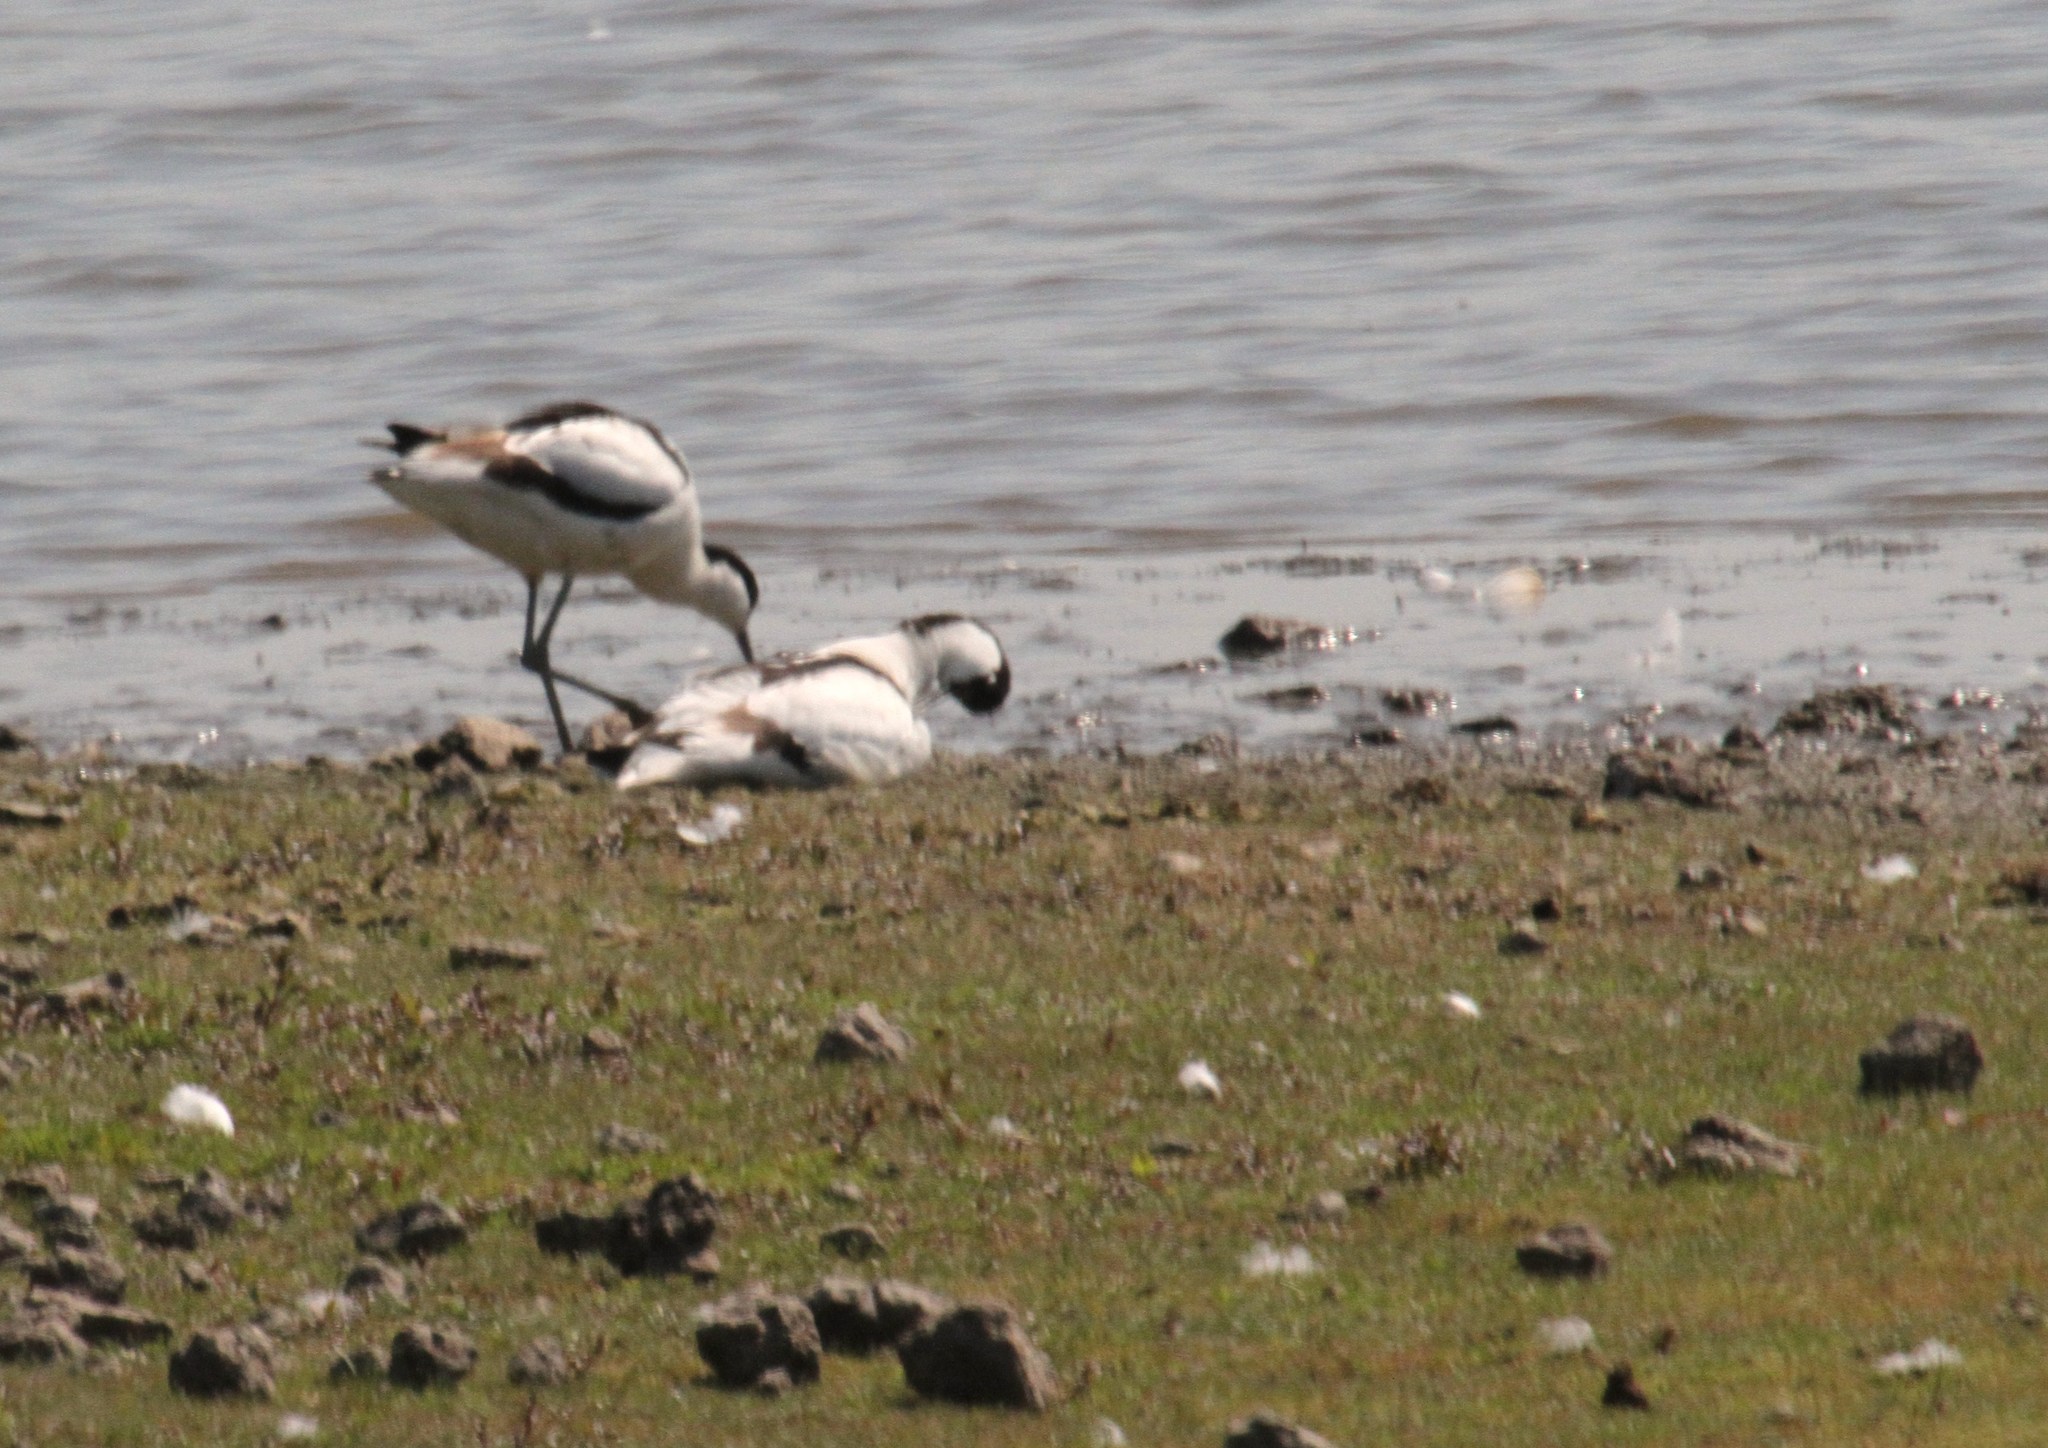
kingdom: Animalia
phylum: Chordata
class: Aves
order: Charadriiformes
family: Recurvirostridae
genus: Recurvirostra
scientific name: Recurvirostra avosetta
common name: Pied avocet
